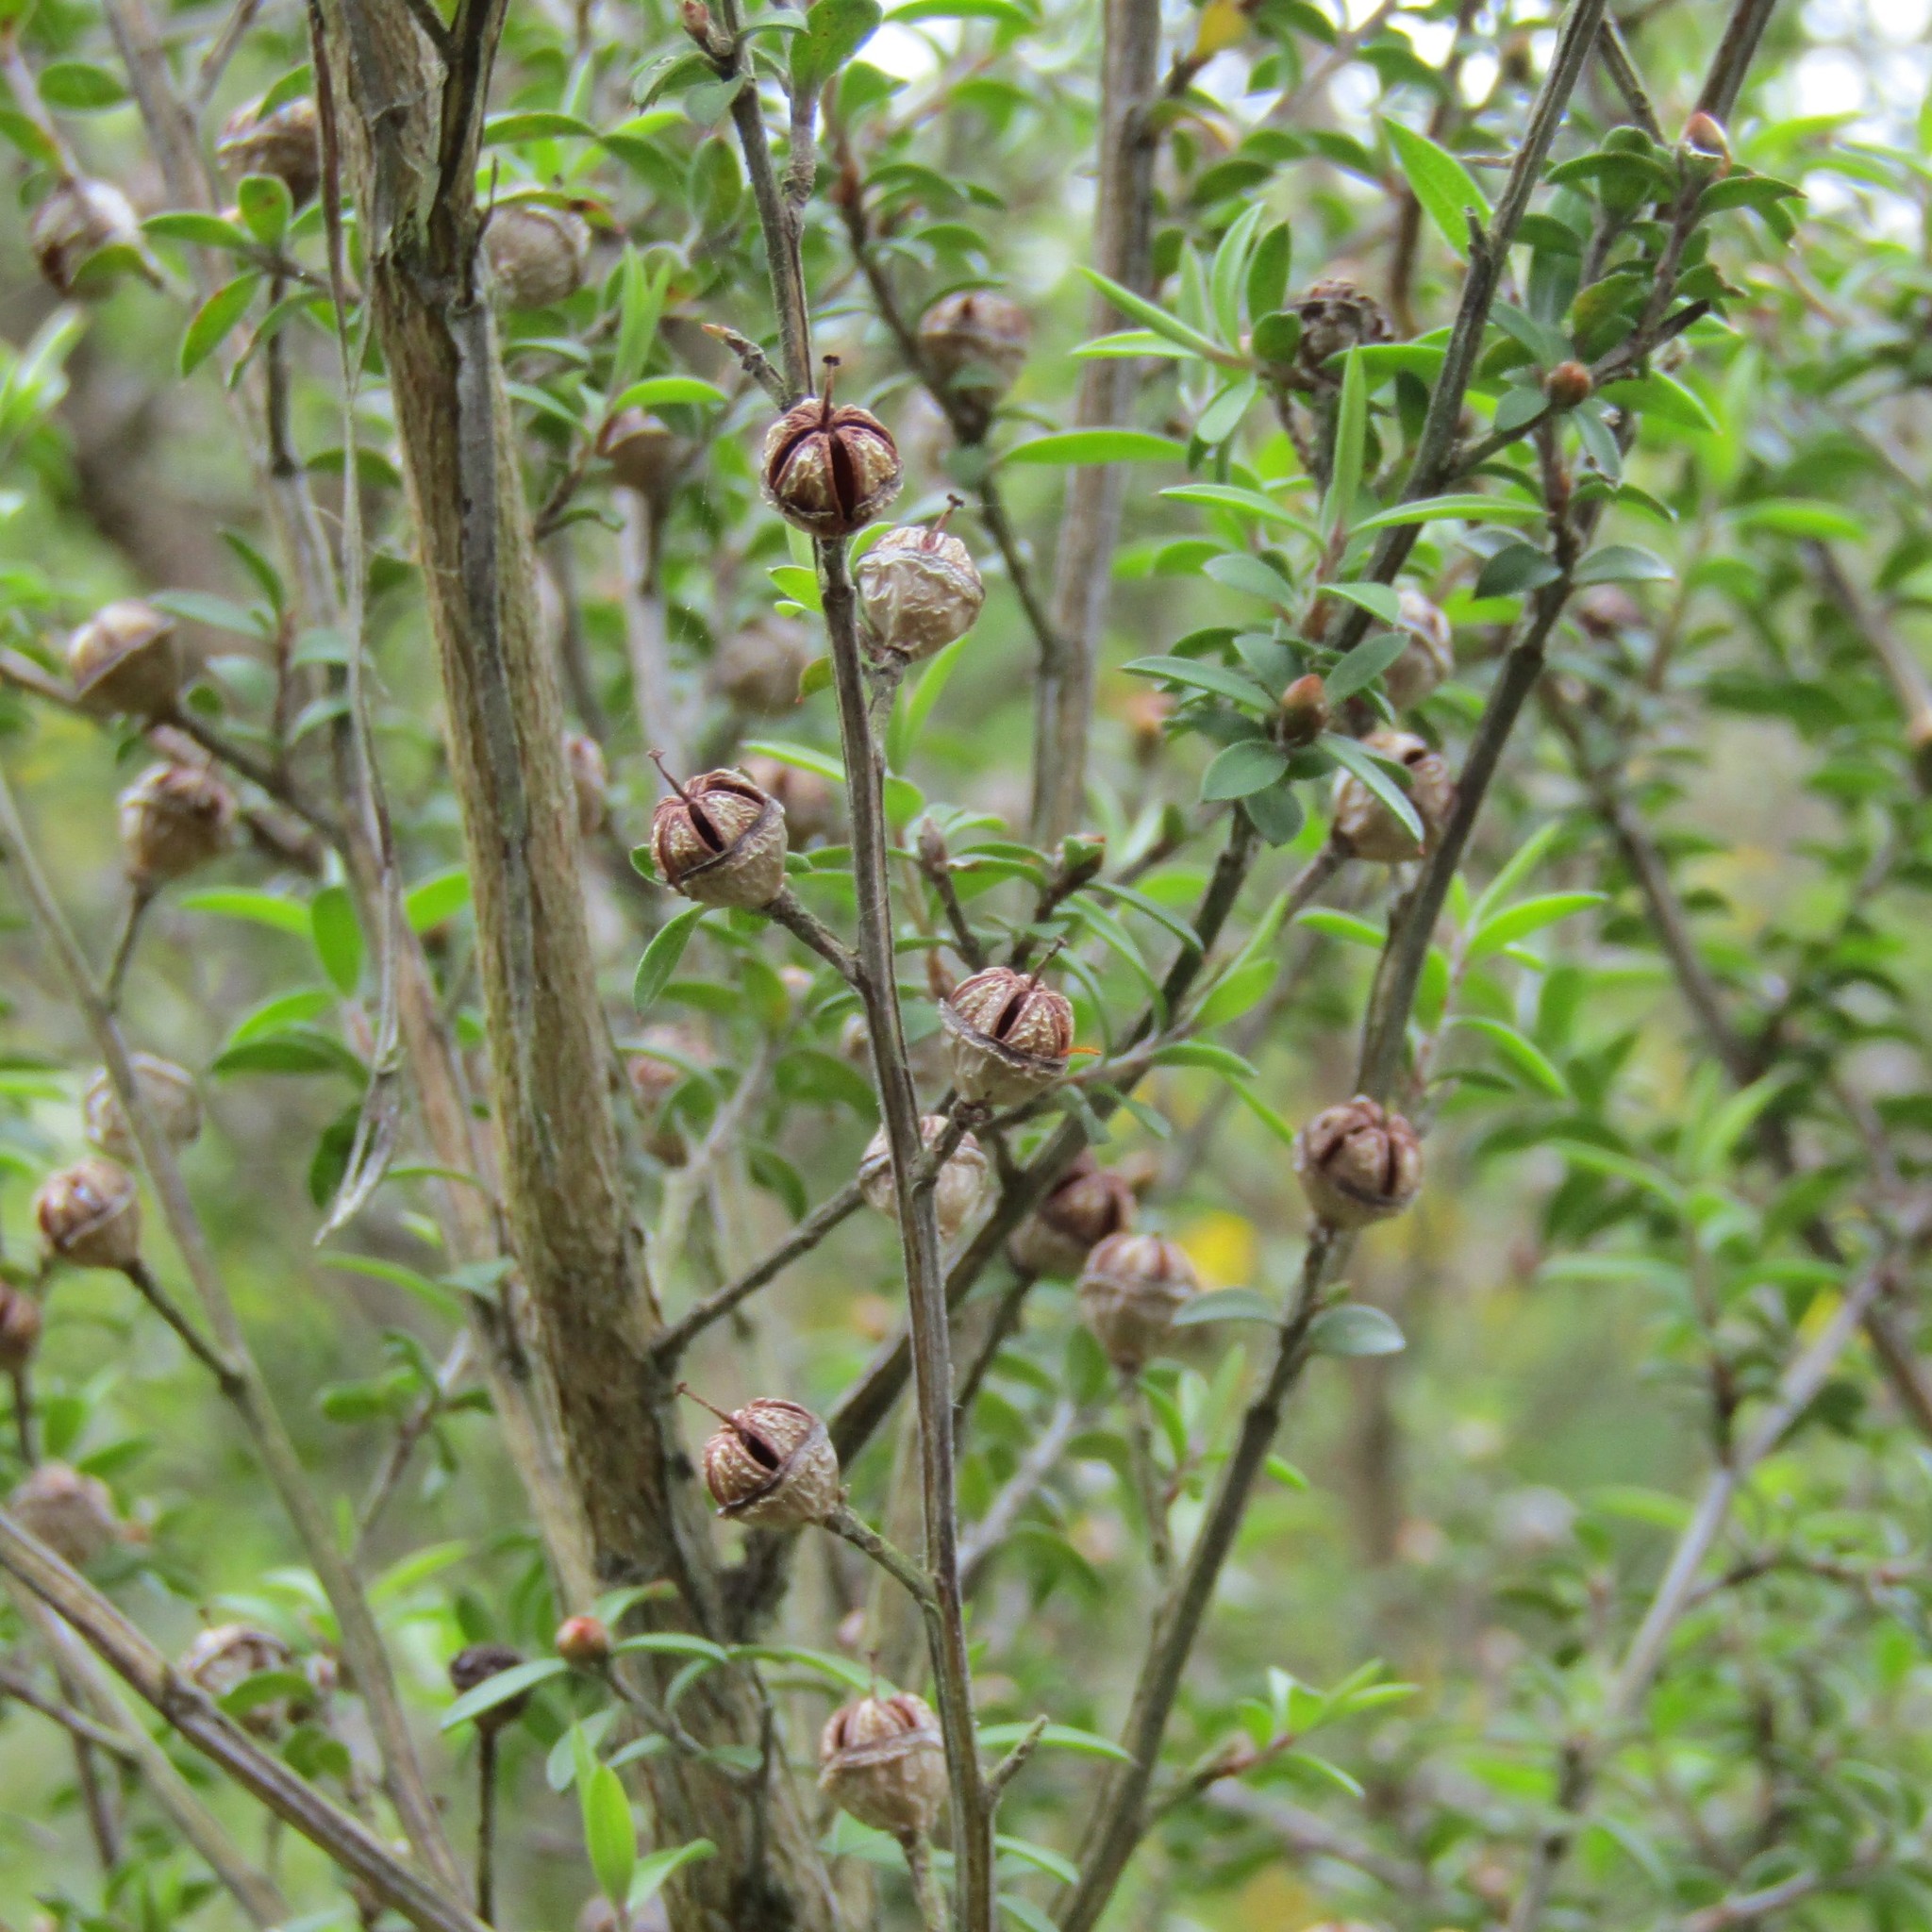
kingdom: Plantae
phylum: Tracheophyta
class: Magnoliopsida
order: Myrtales
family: Myrtaceae
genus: Leptospermum
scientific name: Leptospermum scoparium
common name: Broom tea-tree
